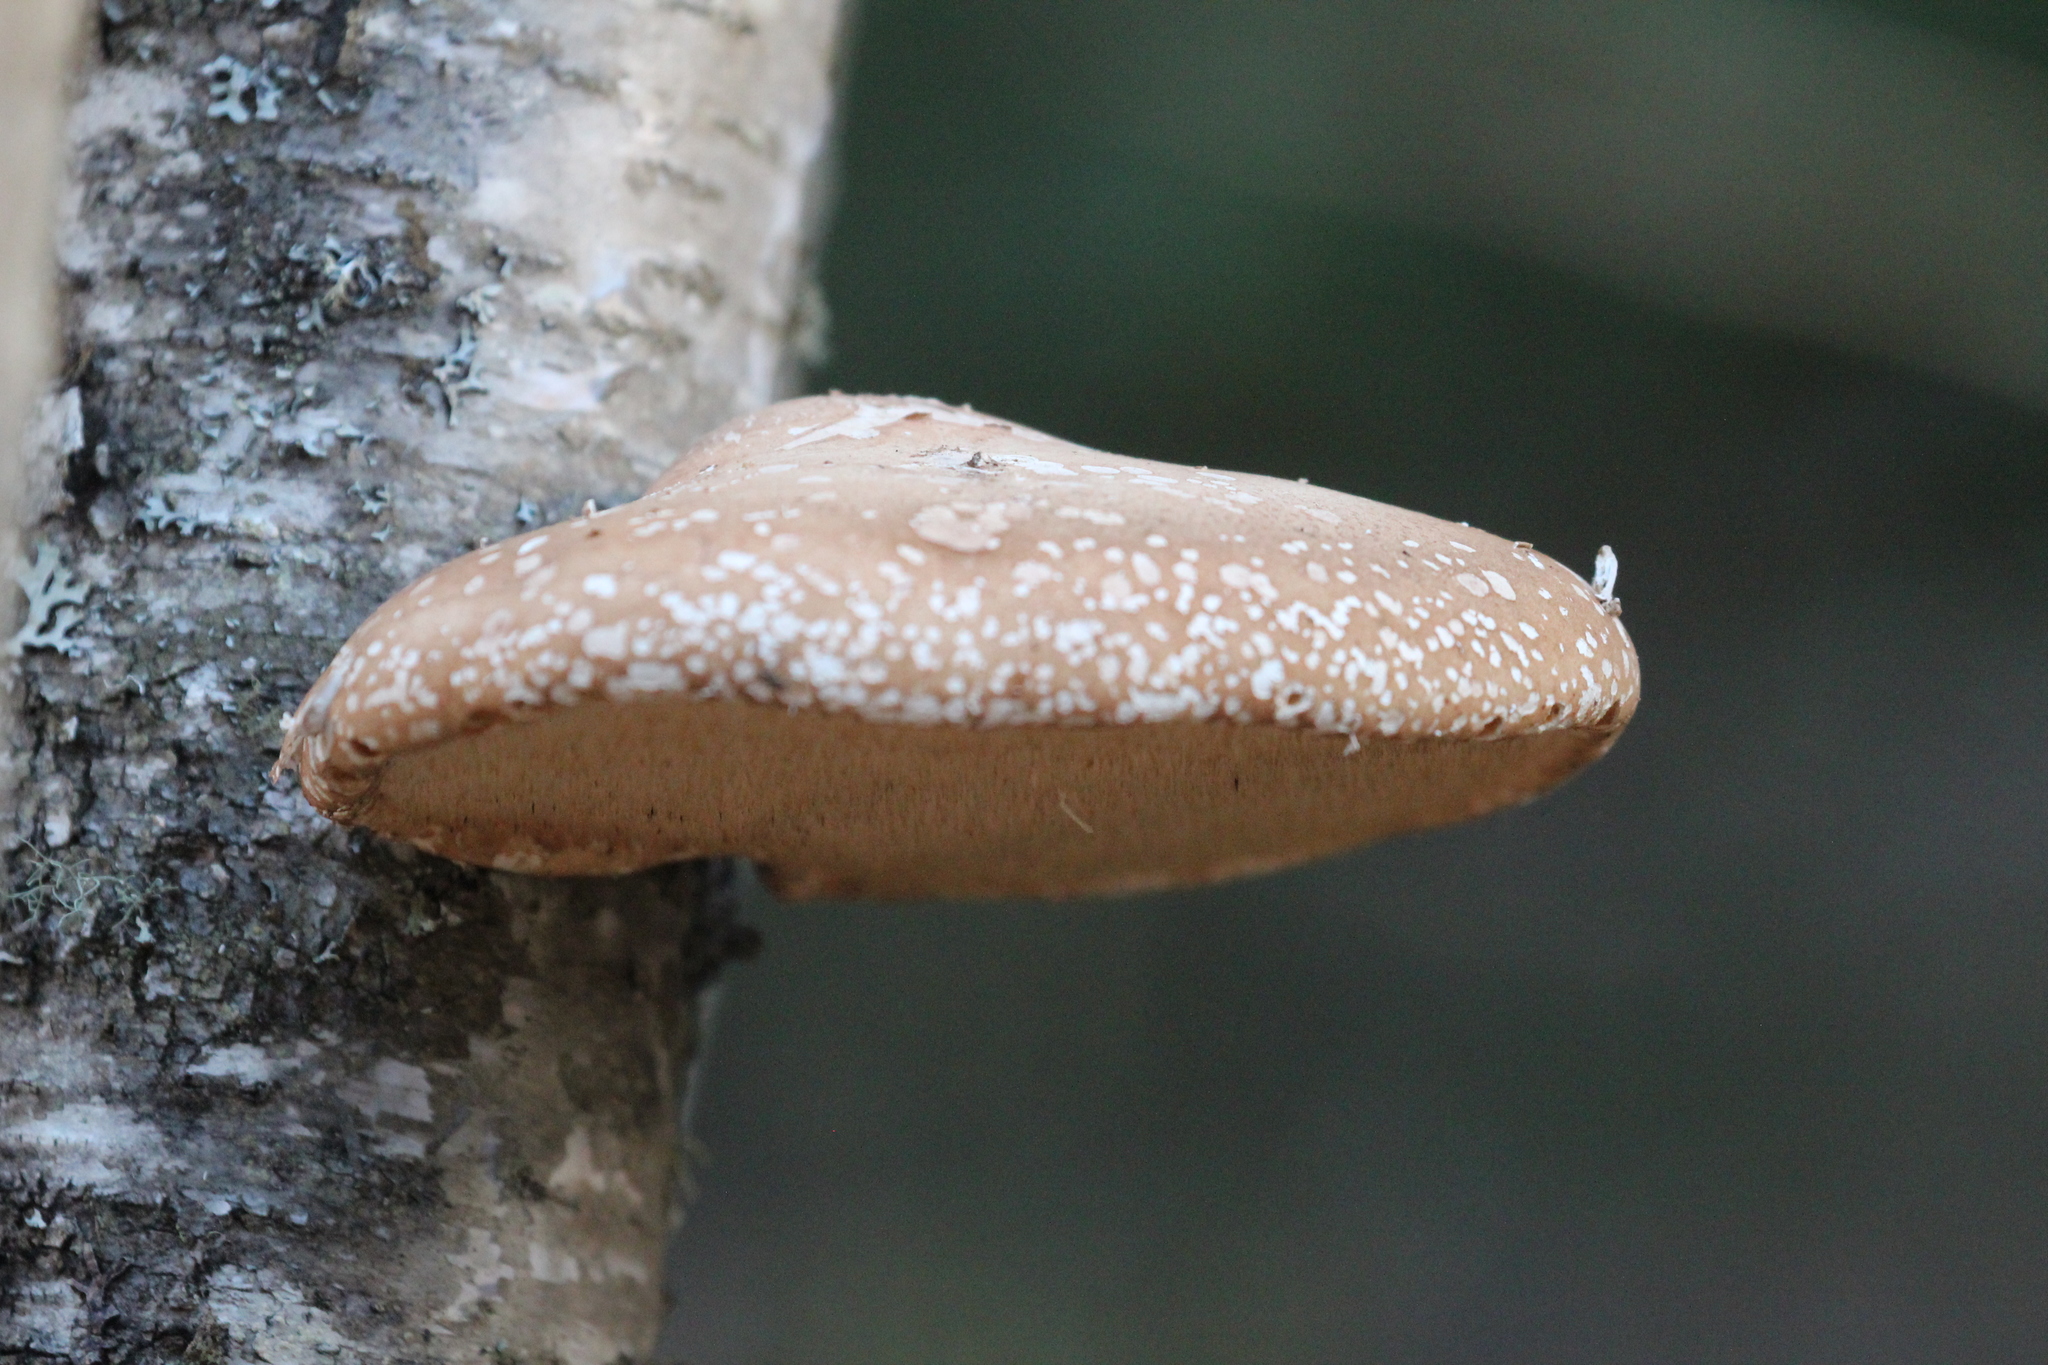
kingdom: Fungi
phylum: Basidiomycota
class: Agaricomycetes
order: Polyporales
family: Fomitopsidaceae
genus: Fomitopsis
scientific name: Fomitopsis betulina
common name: Birch polypore
